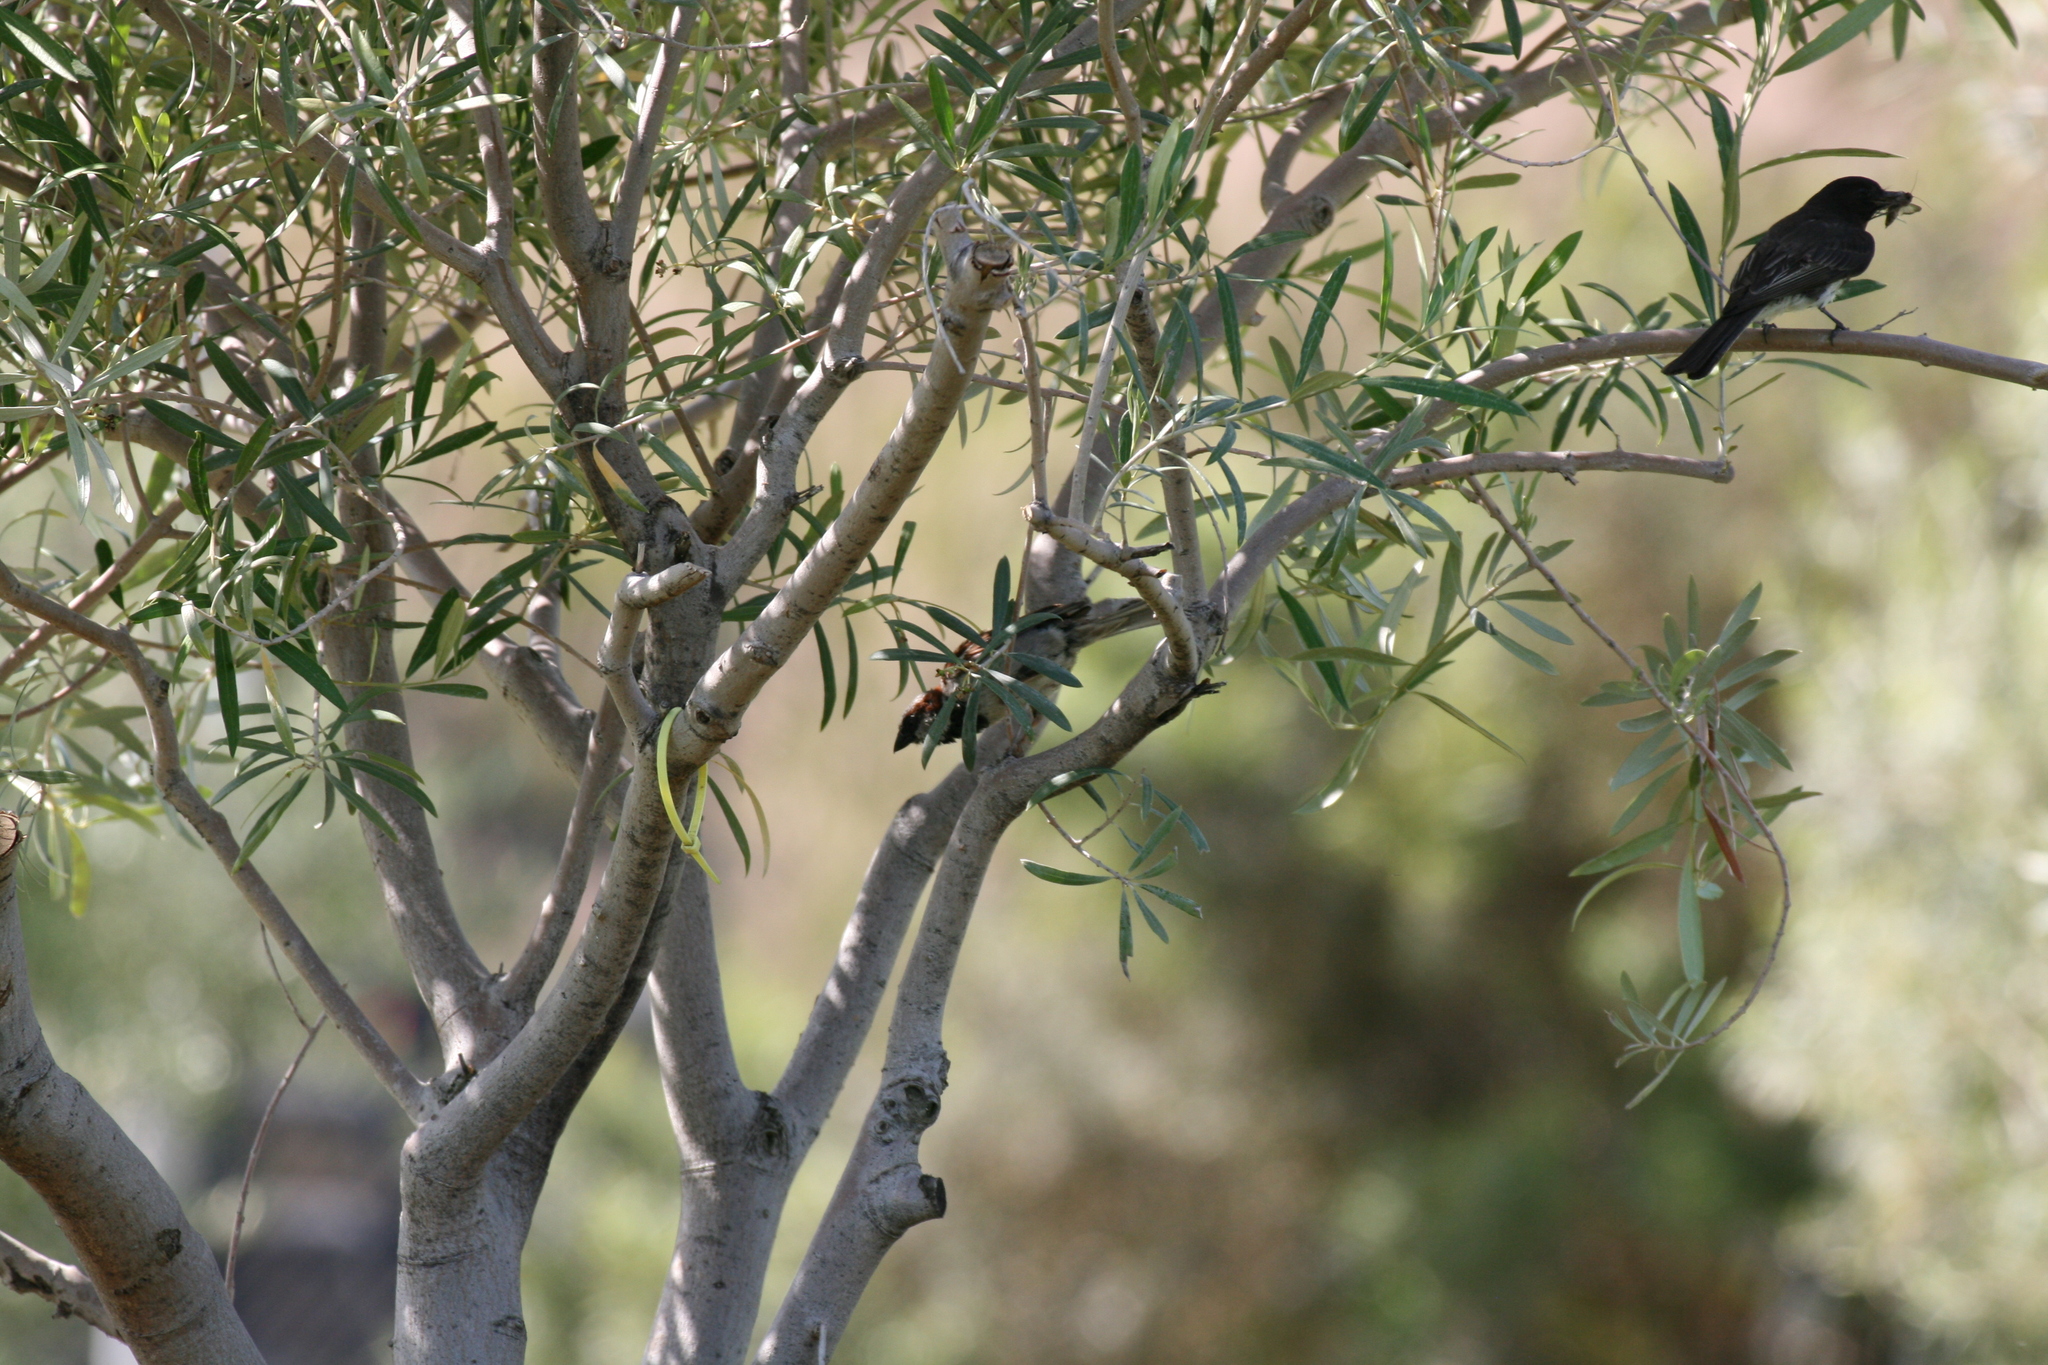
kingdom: Animalia
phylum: Chordata
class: Aves
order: Passeriformes
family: Tyrannidae
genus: Sayornis
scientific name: Sayornis nigricans
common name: Black phoebe
